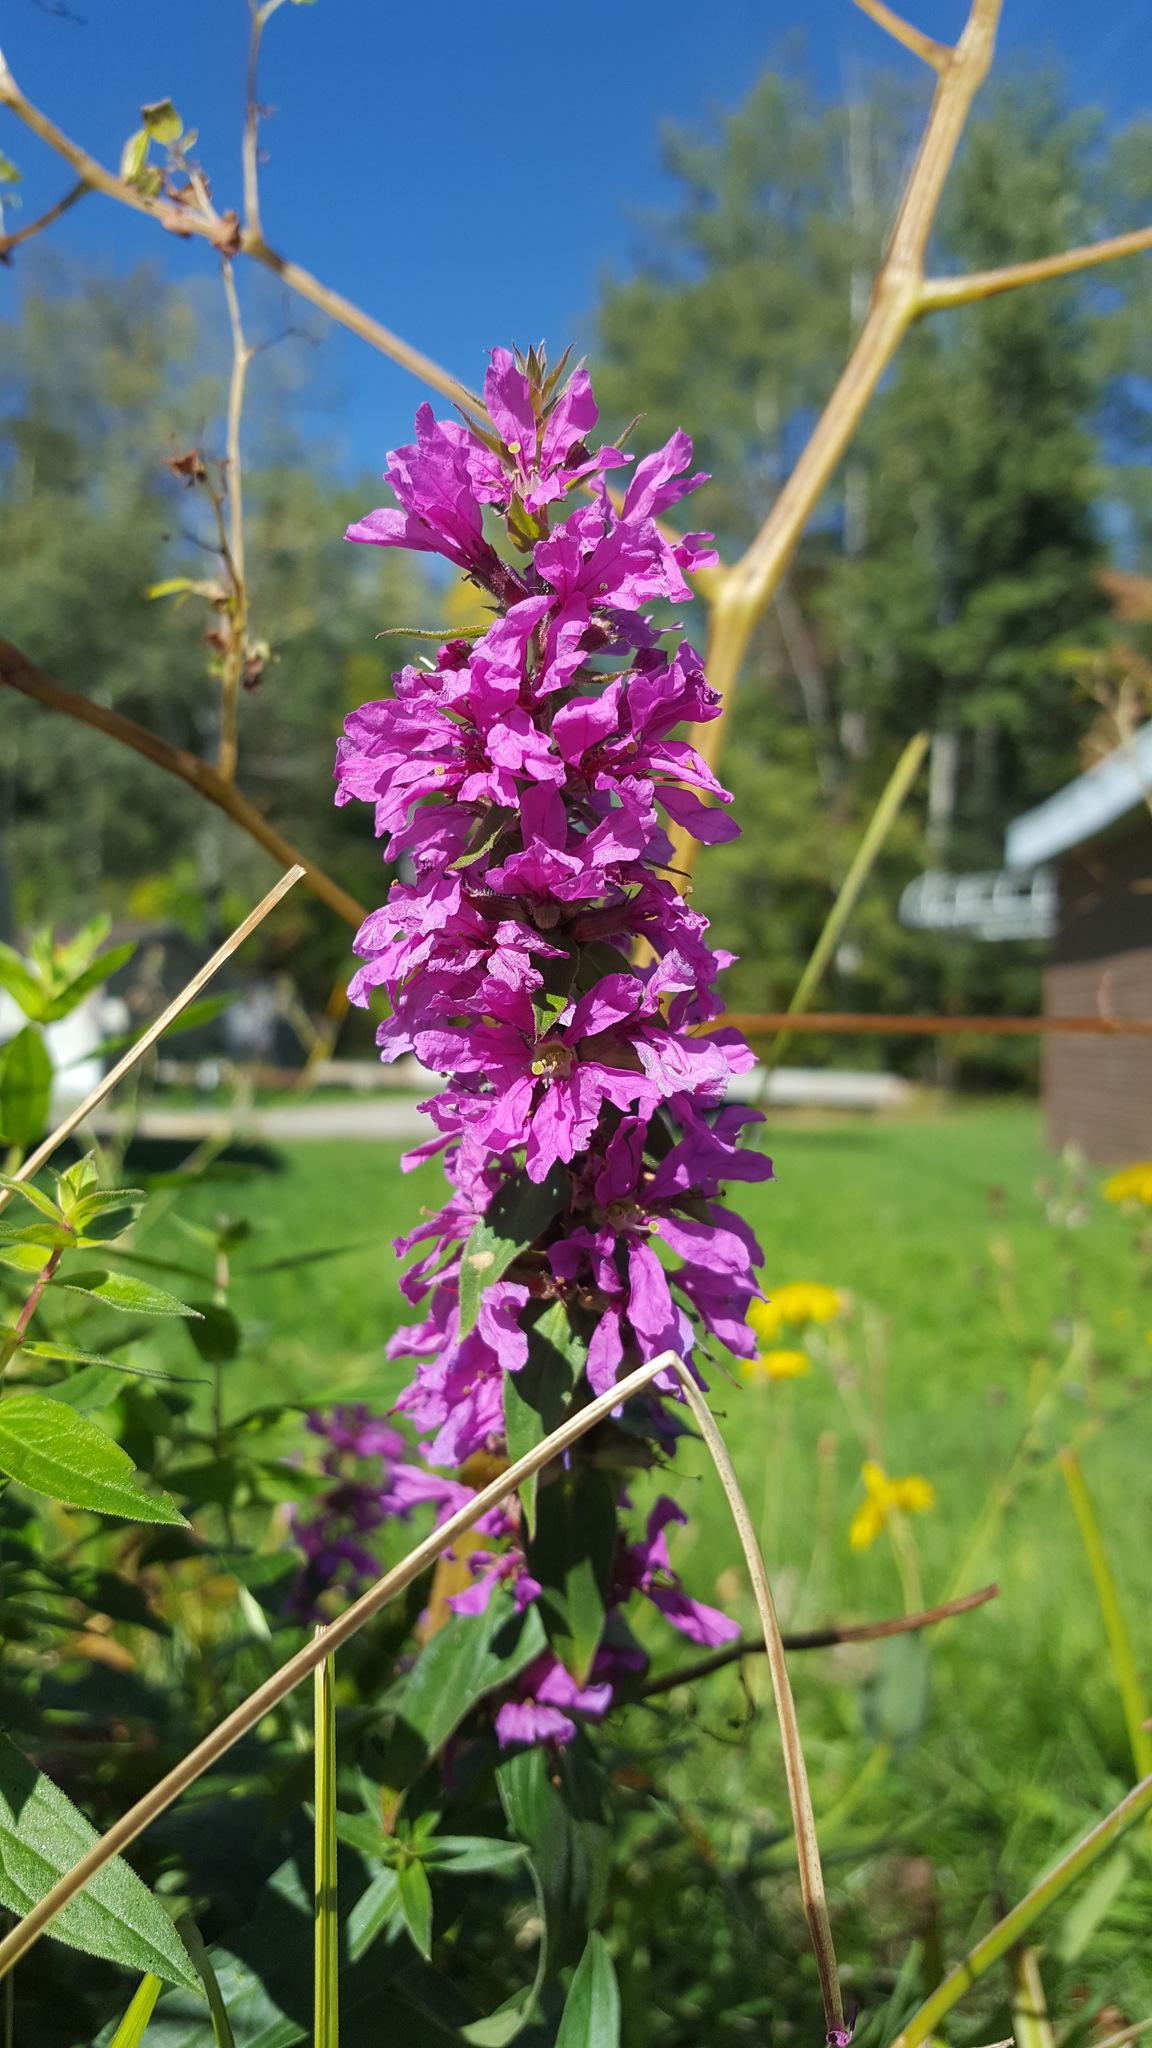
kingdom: Plantae
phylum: Tracheophyta
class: Magnoliopsida
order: Myrtales
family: Lythraceae
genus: Lythrum
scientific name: Lythrum salicaria
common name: Purple loosestrife
